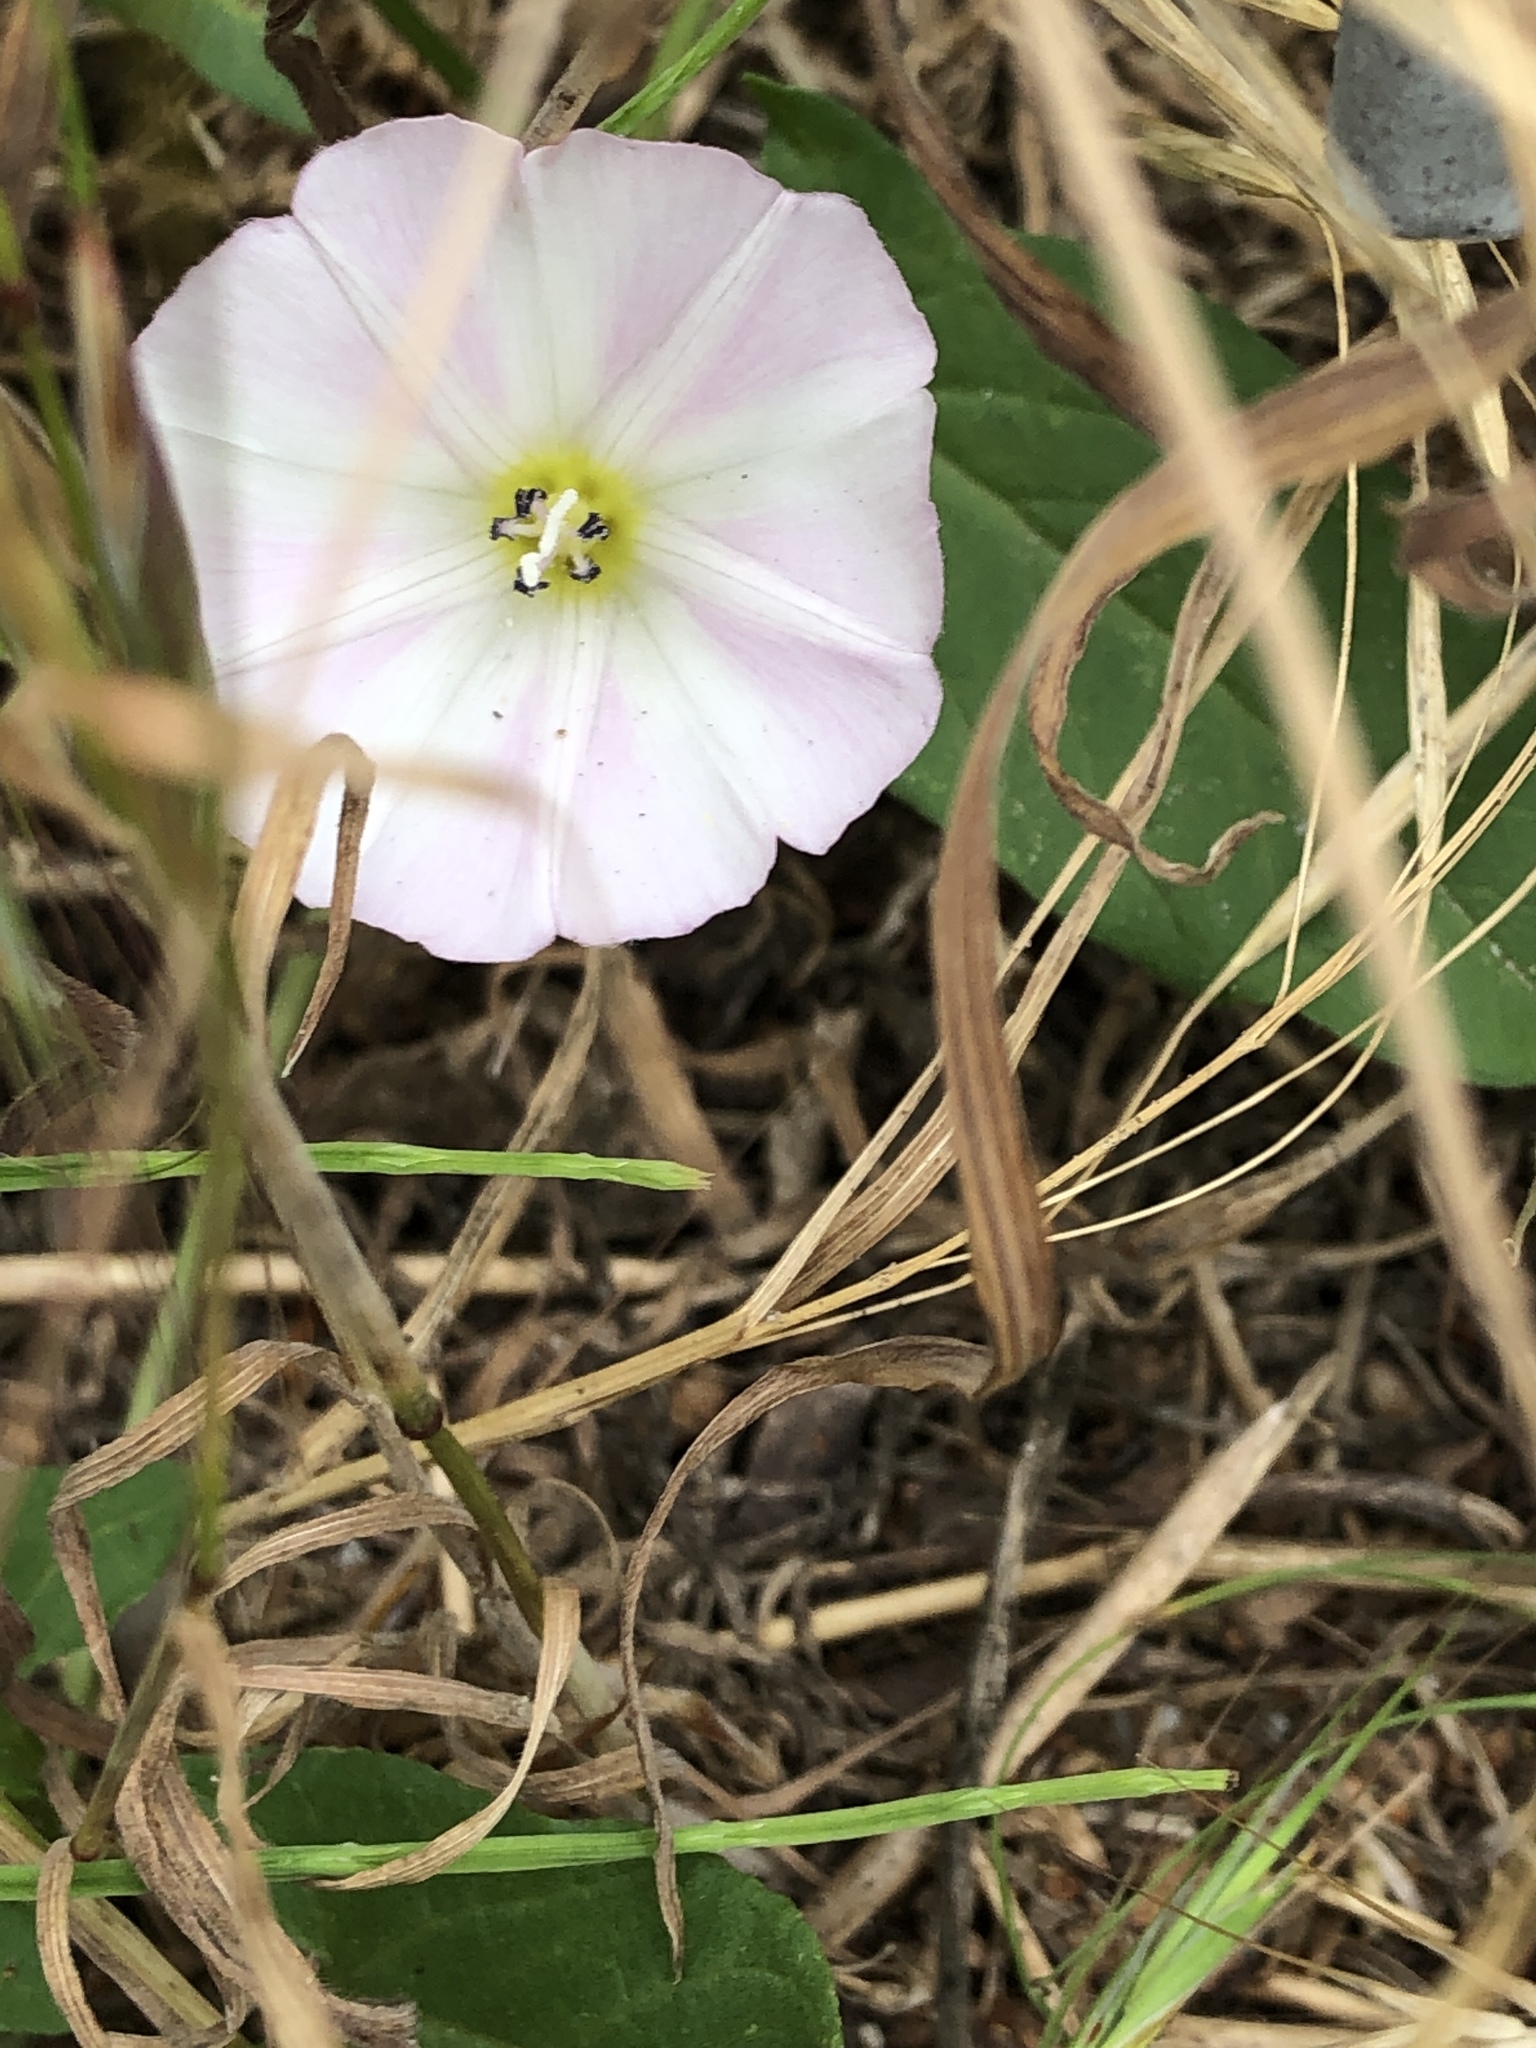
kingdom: Plantae
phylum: Tracheophyta
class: Magnoliopsida
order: Solanales
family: Convolvulaceae
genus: Convolvulus
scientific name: Convolvulus arvensis
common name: Field bindweed
